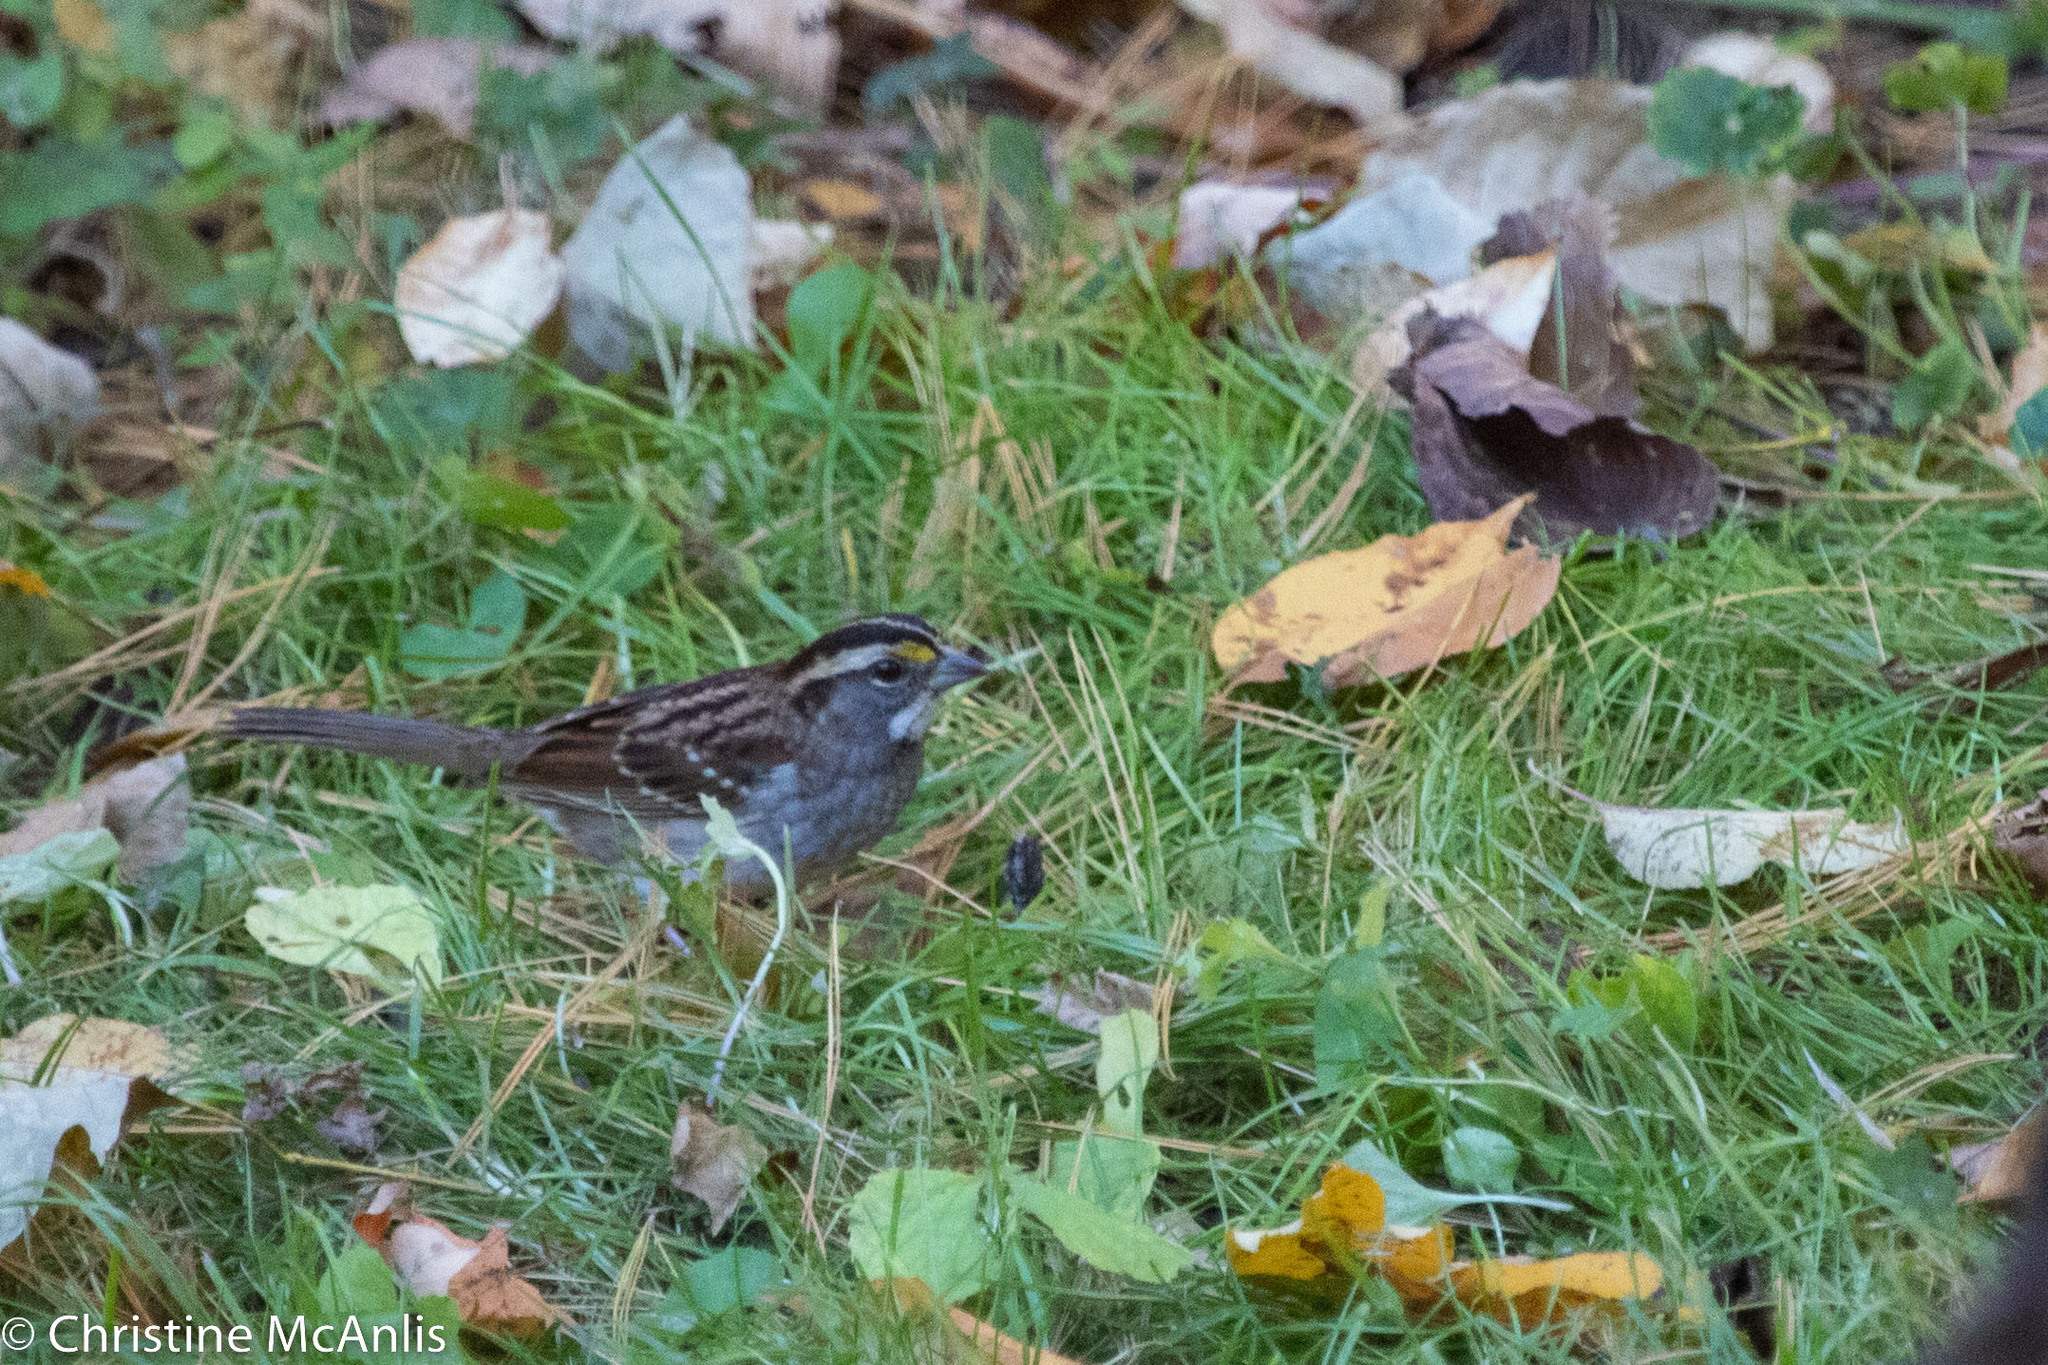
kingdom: Animalia
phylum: Chordata
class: Aves
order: Passeriformes
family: Passerellidae
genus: Zonotrichia
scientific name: Zonotrichia albicollis
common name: White-throated sparrow
